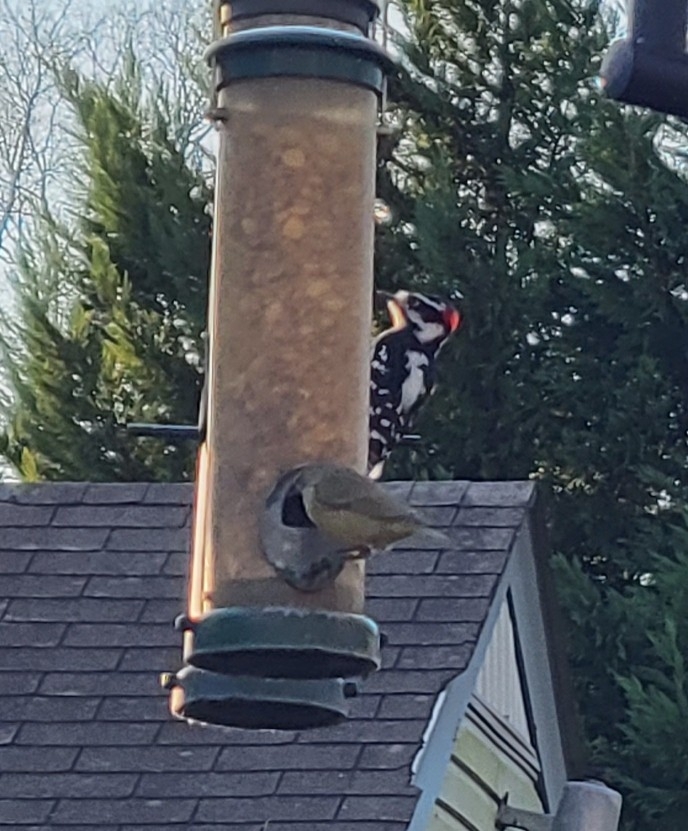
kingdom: Animalia
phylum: Chordata
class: Aves
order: Piciformes
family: Picidae
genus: Dryobates
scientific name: Dryobates pubescens
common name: Downy woodpecker
